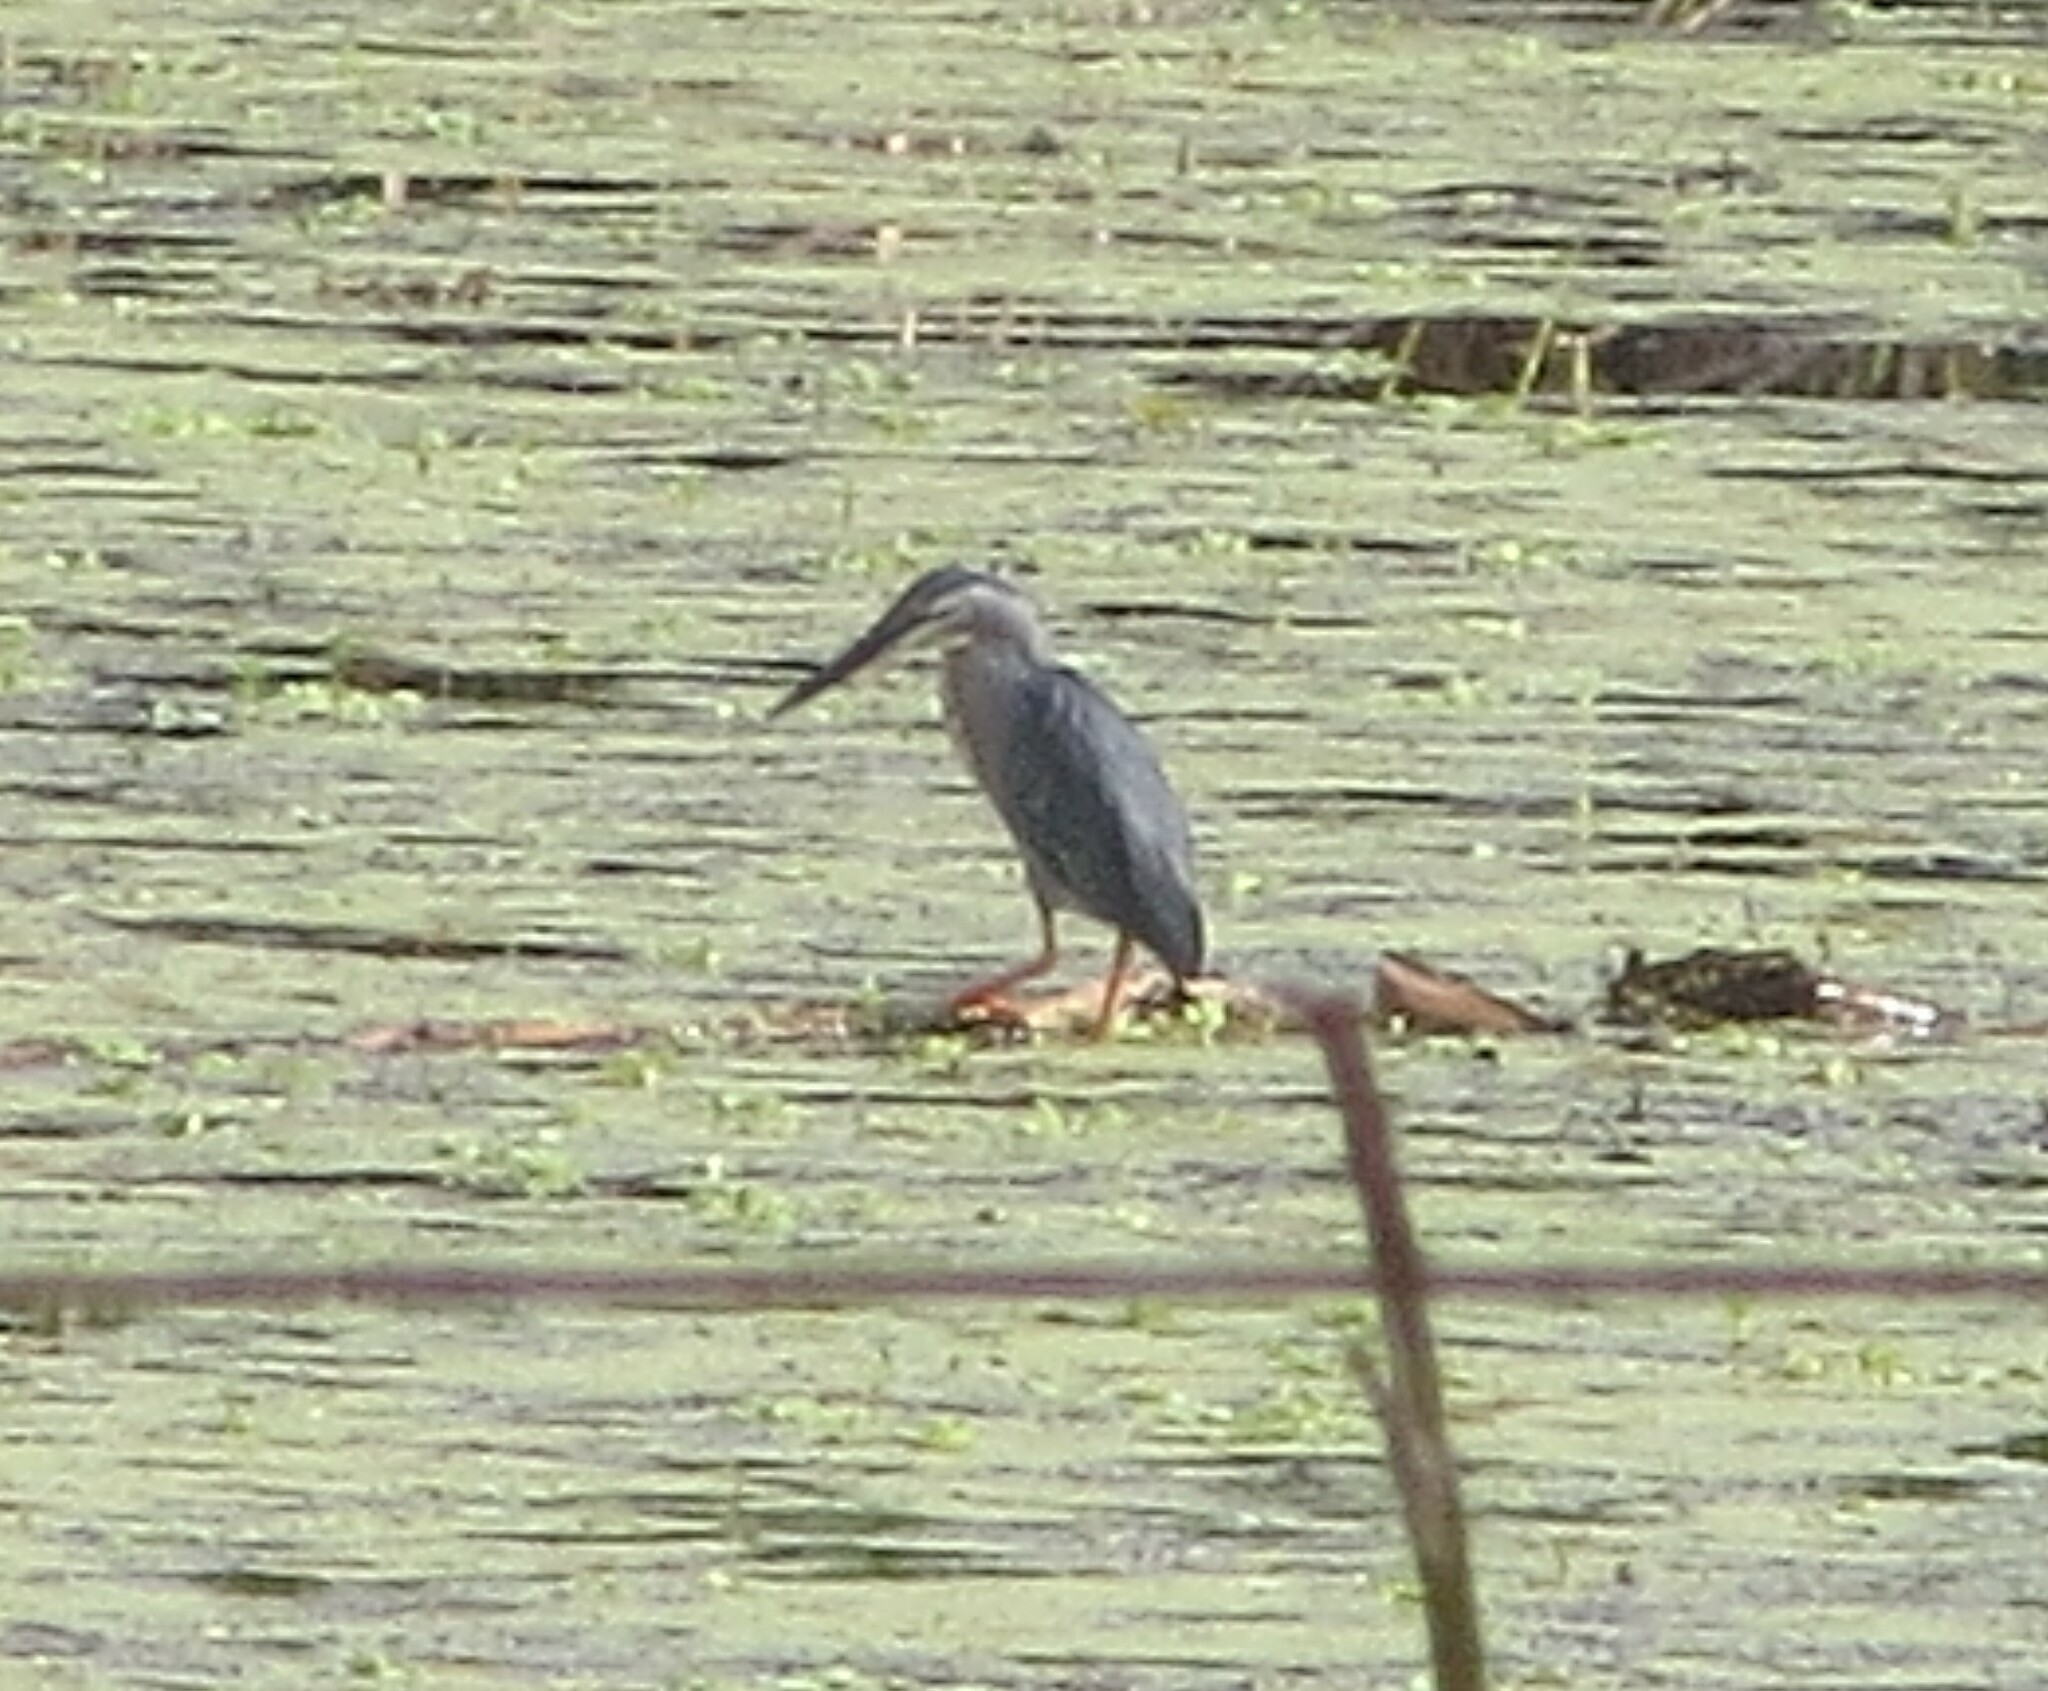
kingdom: Animalia
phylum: Chordata
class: Aves
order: Pelecaniformes
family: Ardeidae
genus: Butorides
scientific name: Butorides striata
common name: Striated heron
